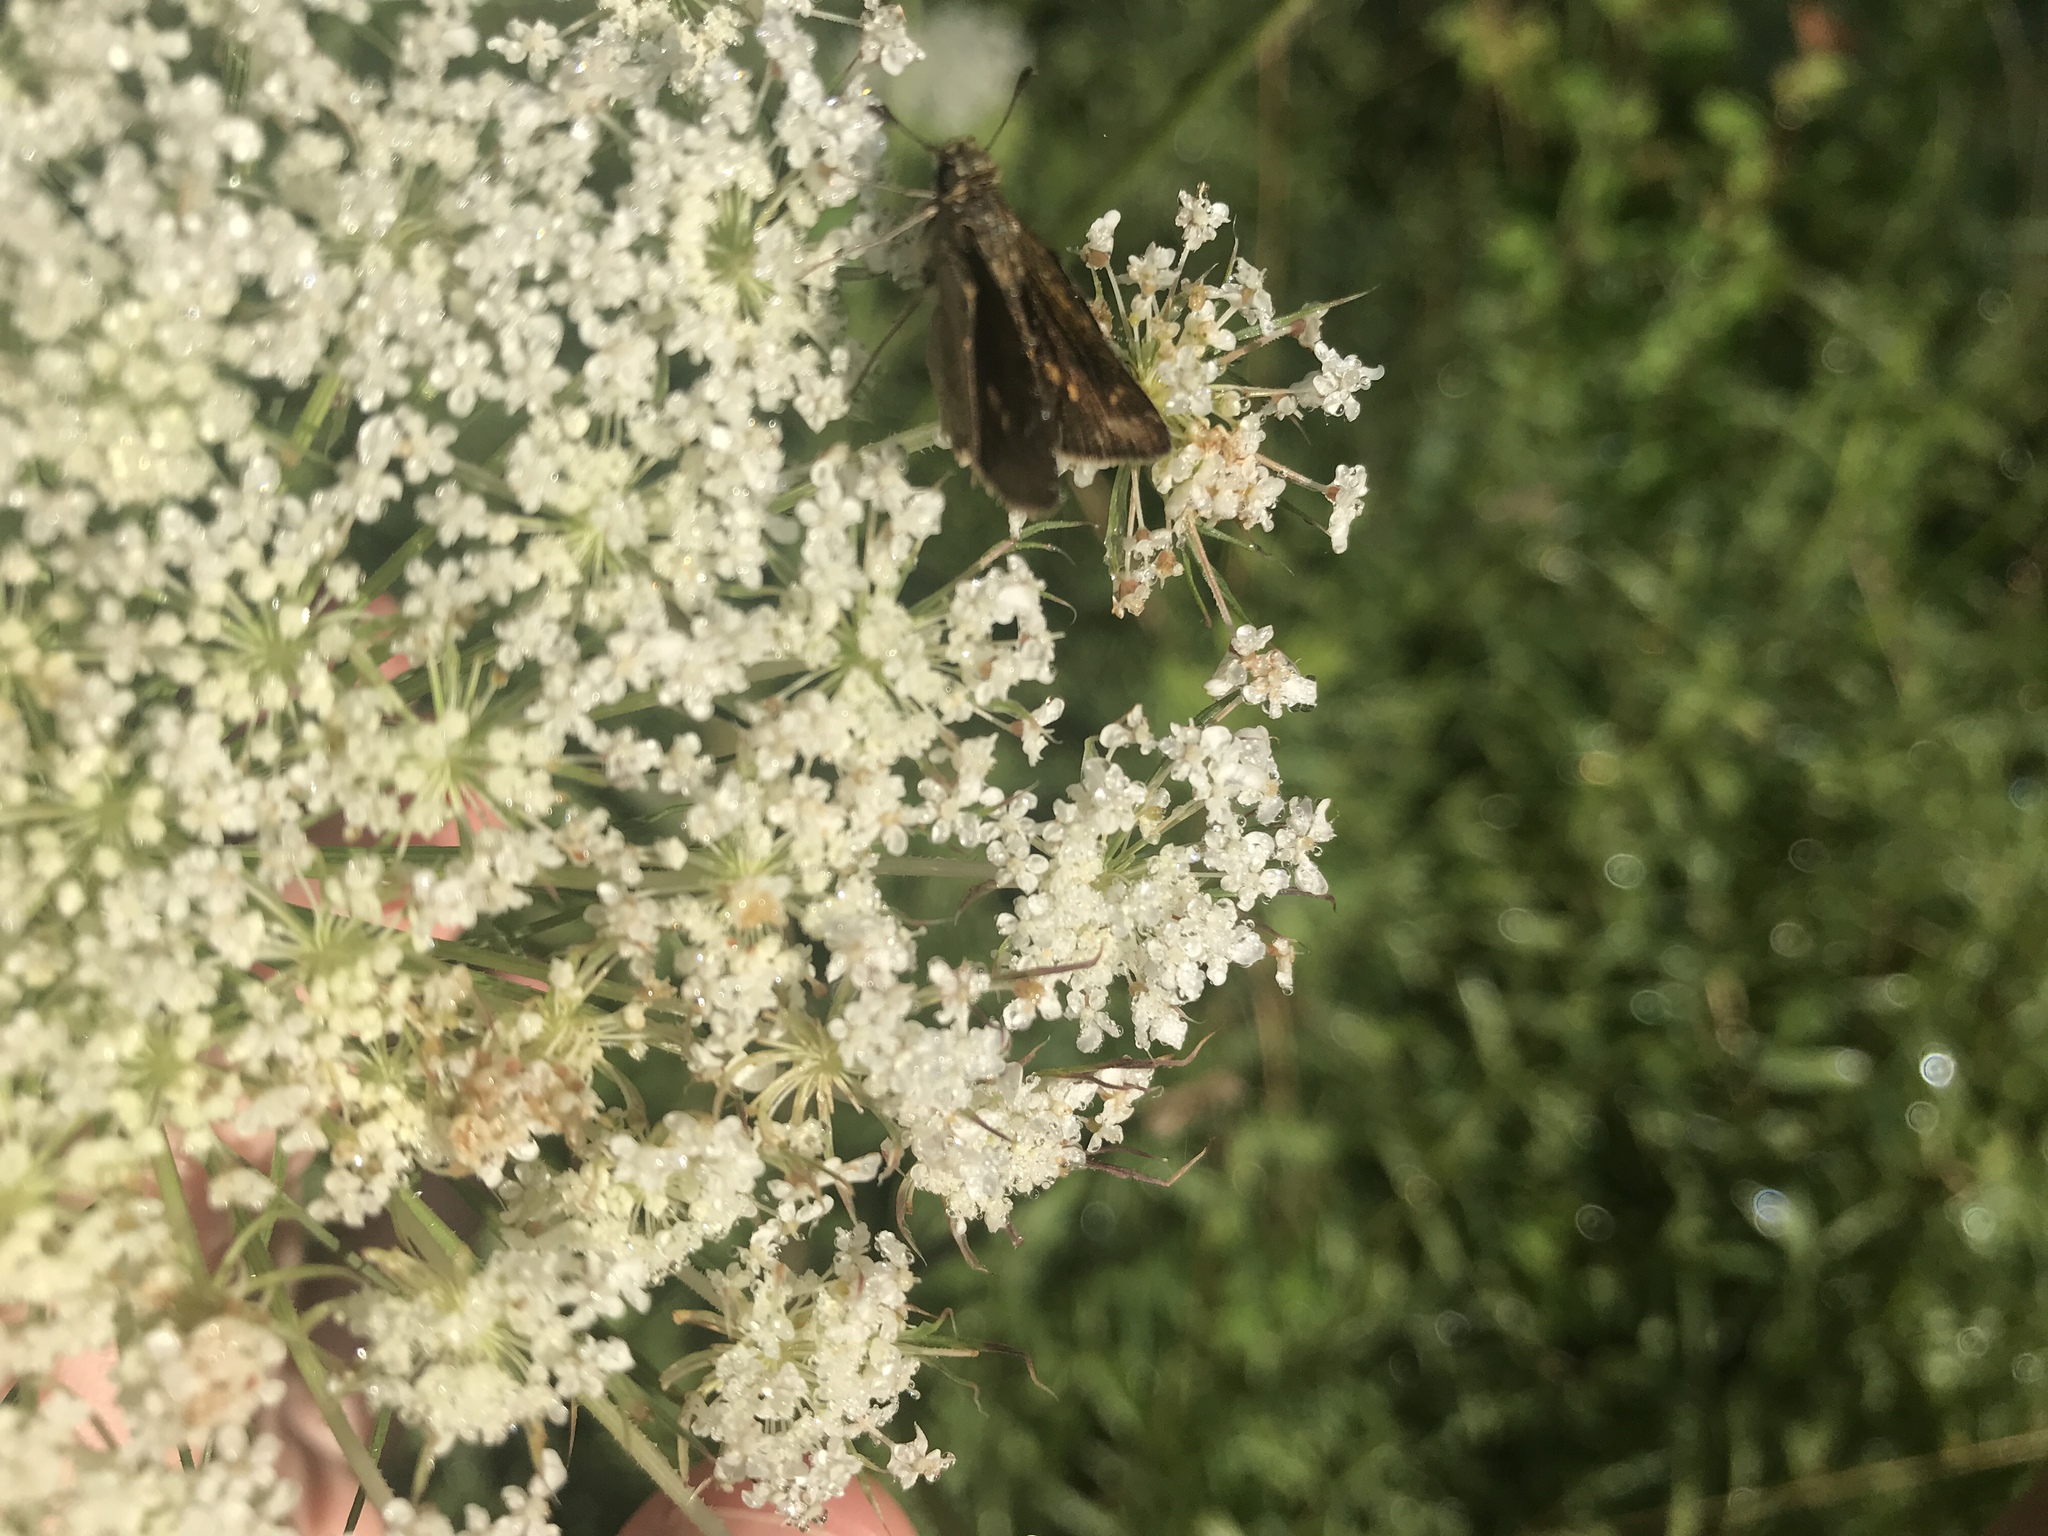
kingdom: Animalia
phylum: Arthropoda
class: Insecta
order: Lepidoptera
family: Hesperiidae
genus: Polites
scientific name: Polites themistocles
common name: Tawny-edged skipper
